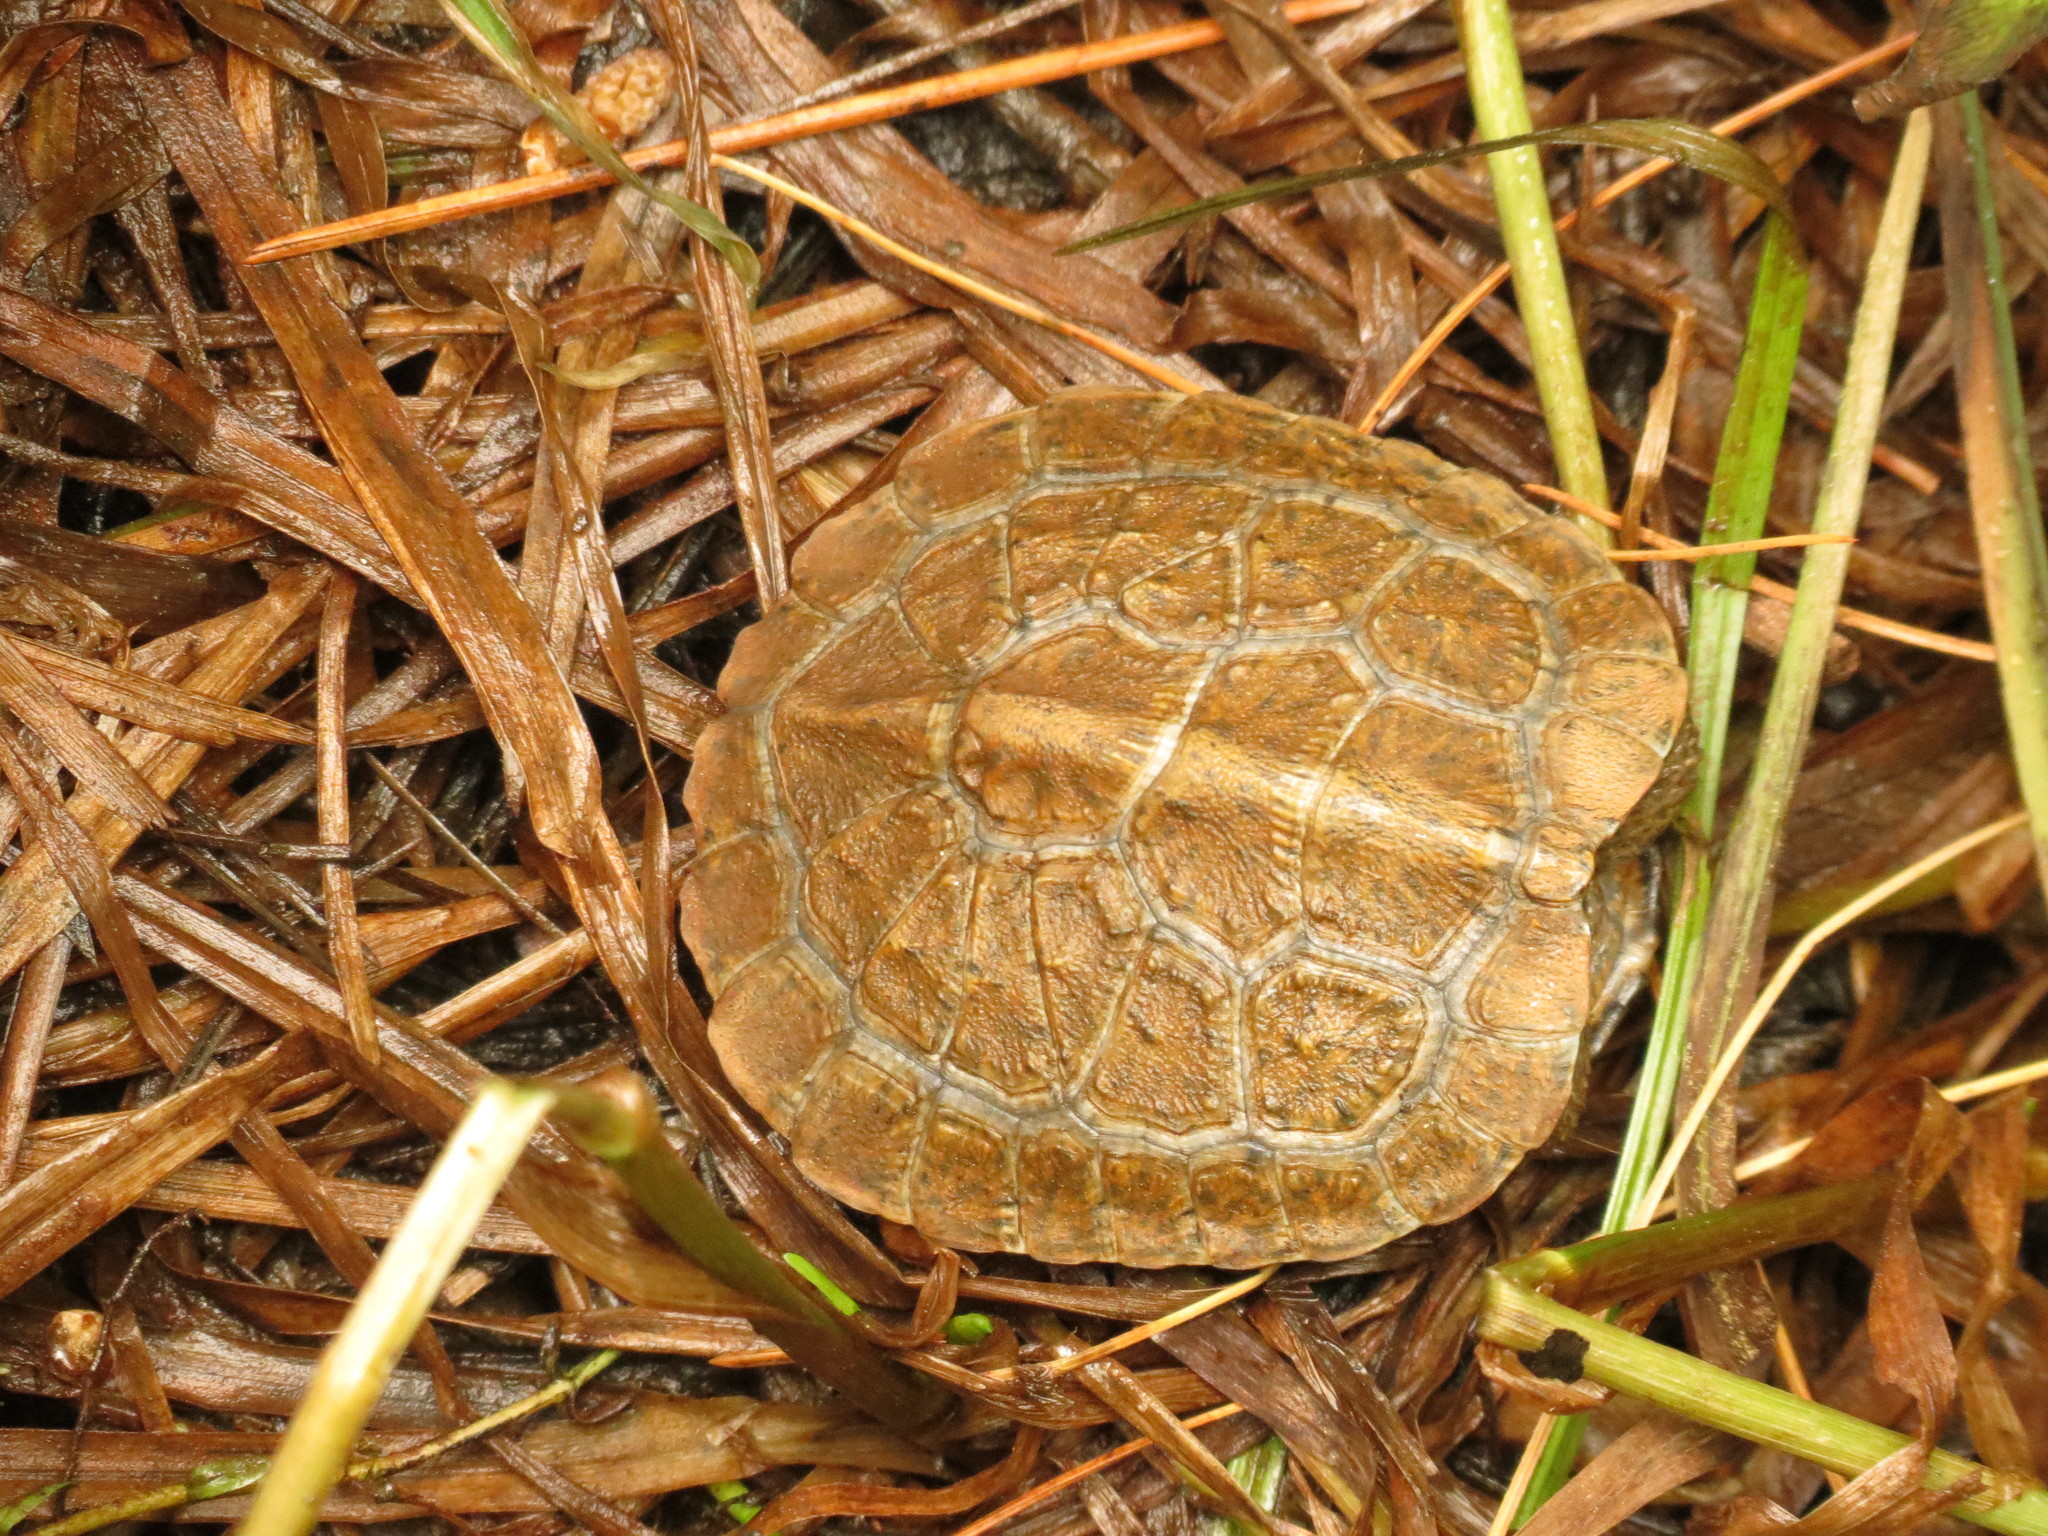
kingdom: Animalia
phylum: Chordata
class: Testudines
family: Emydidae
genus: Glyptemys
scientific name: Glyptemys insculpta
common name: Wood turtle
